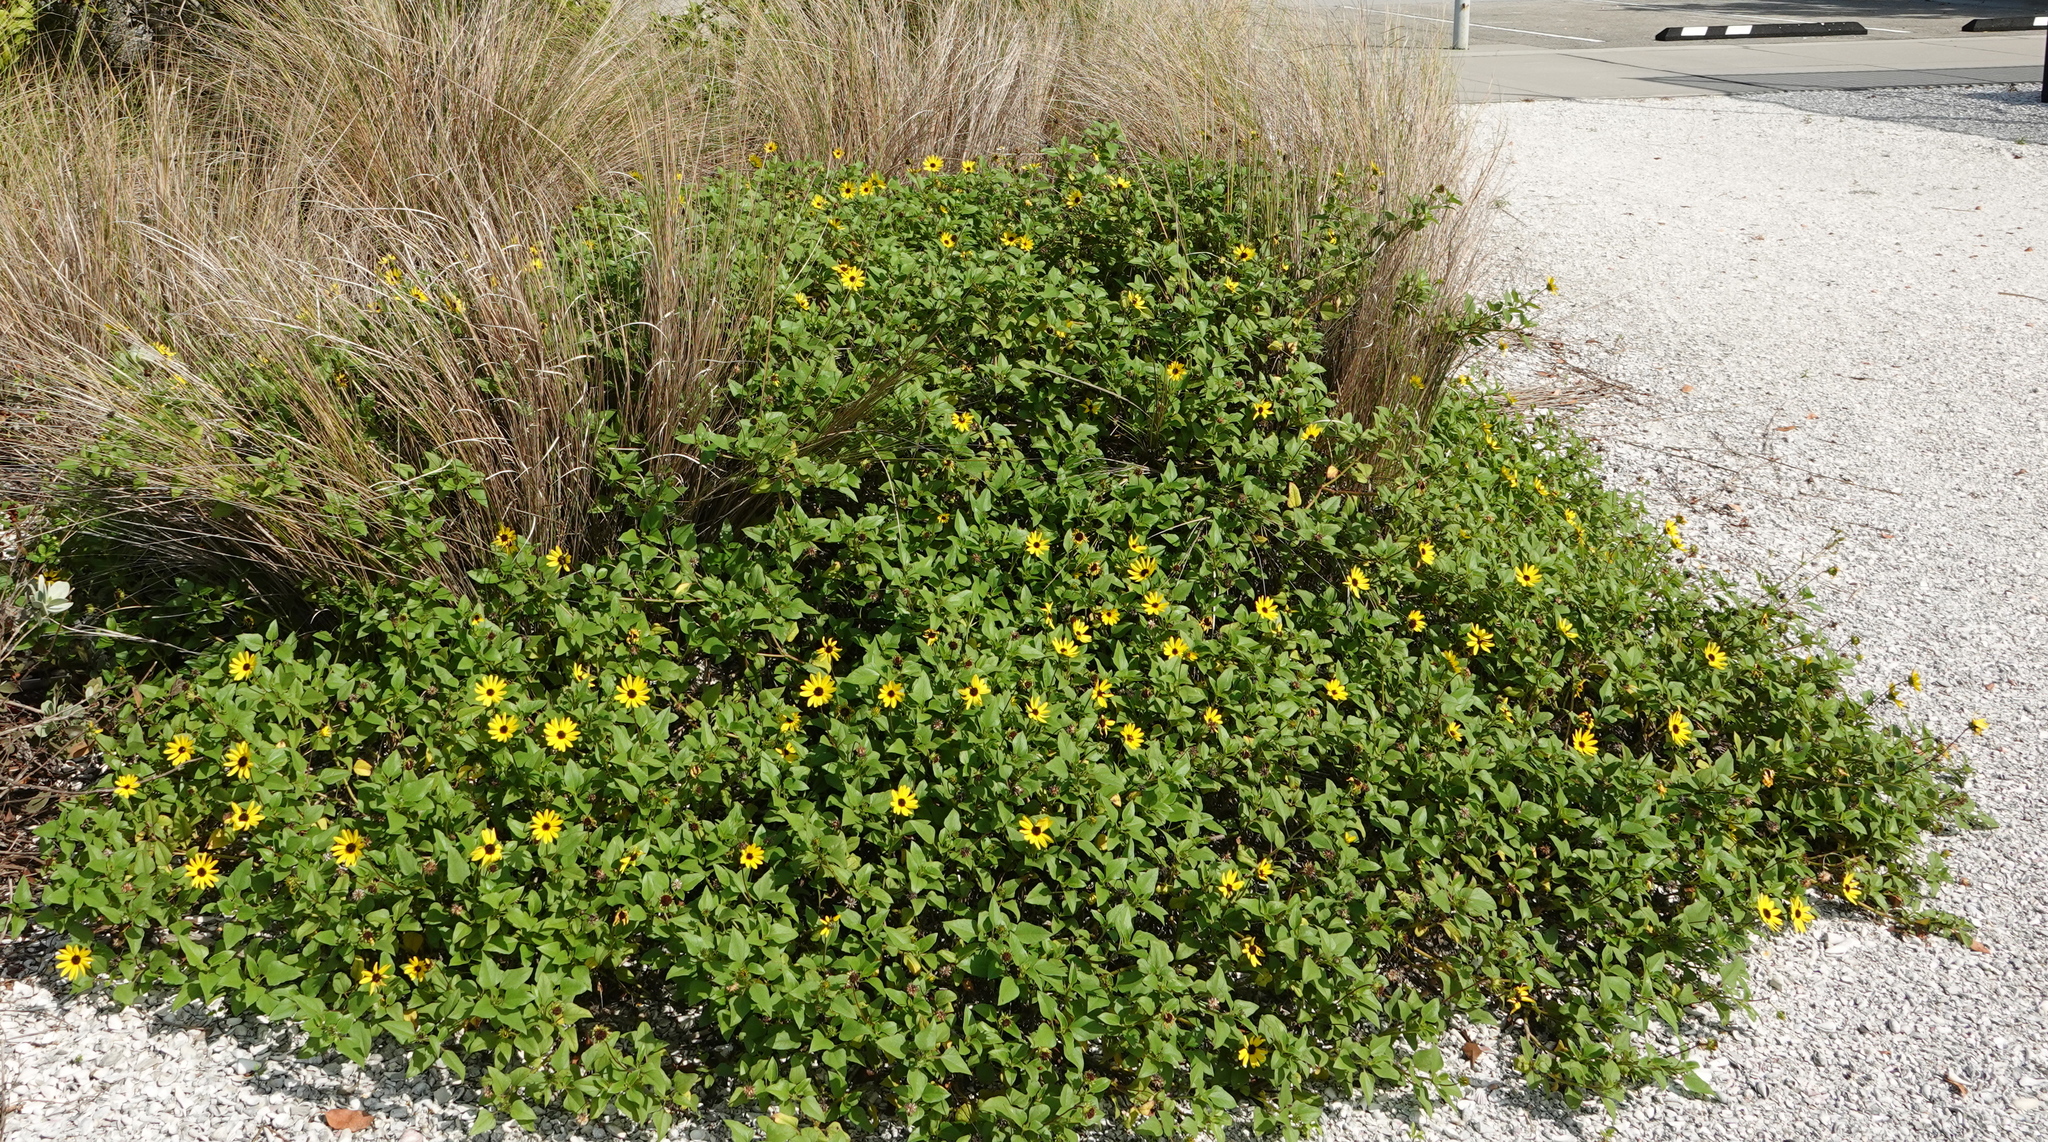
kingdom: Plantae
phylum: Tracheophyta
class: Magnoliopsida
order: Asterales
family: Asteraceae
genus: Helianthus
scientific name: Helianthus debilis
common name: Weak sunflower
